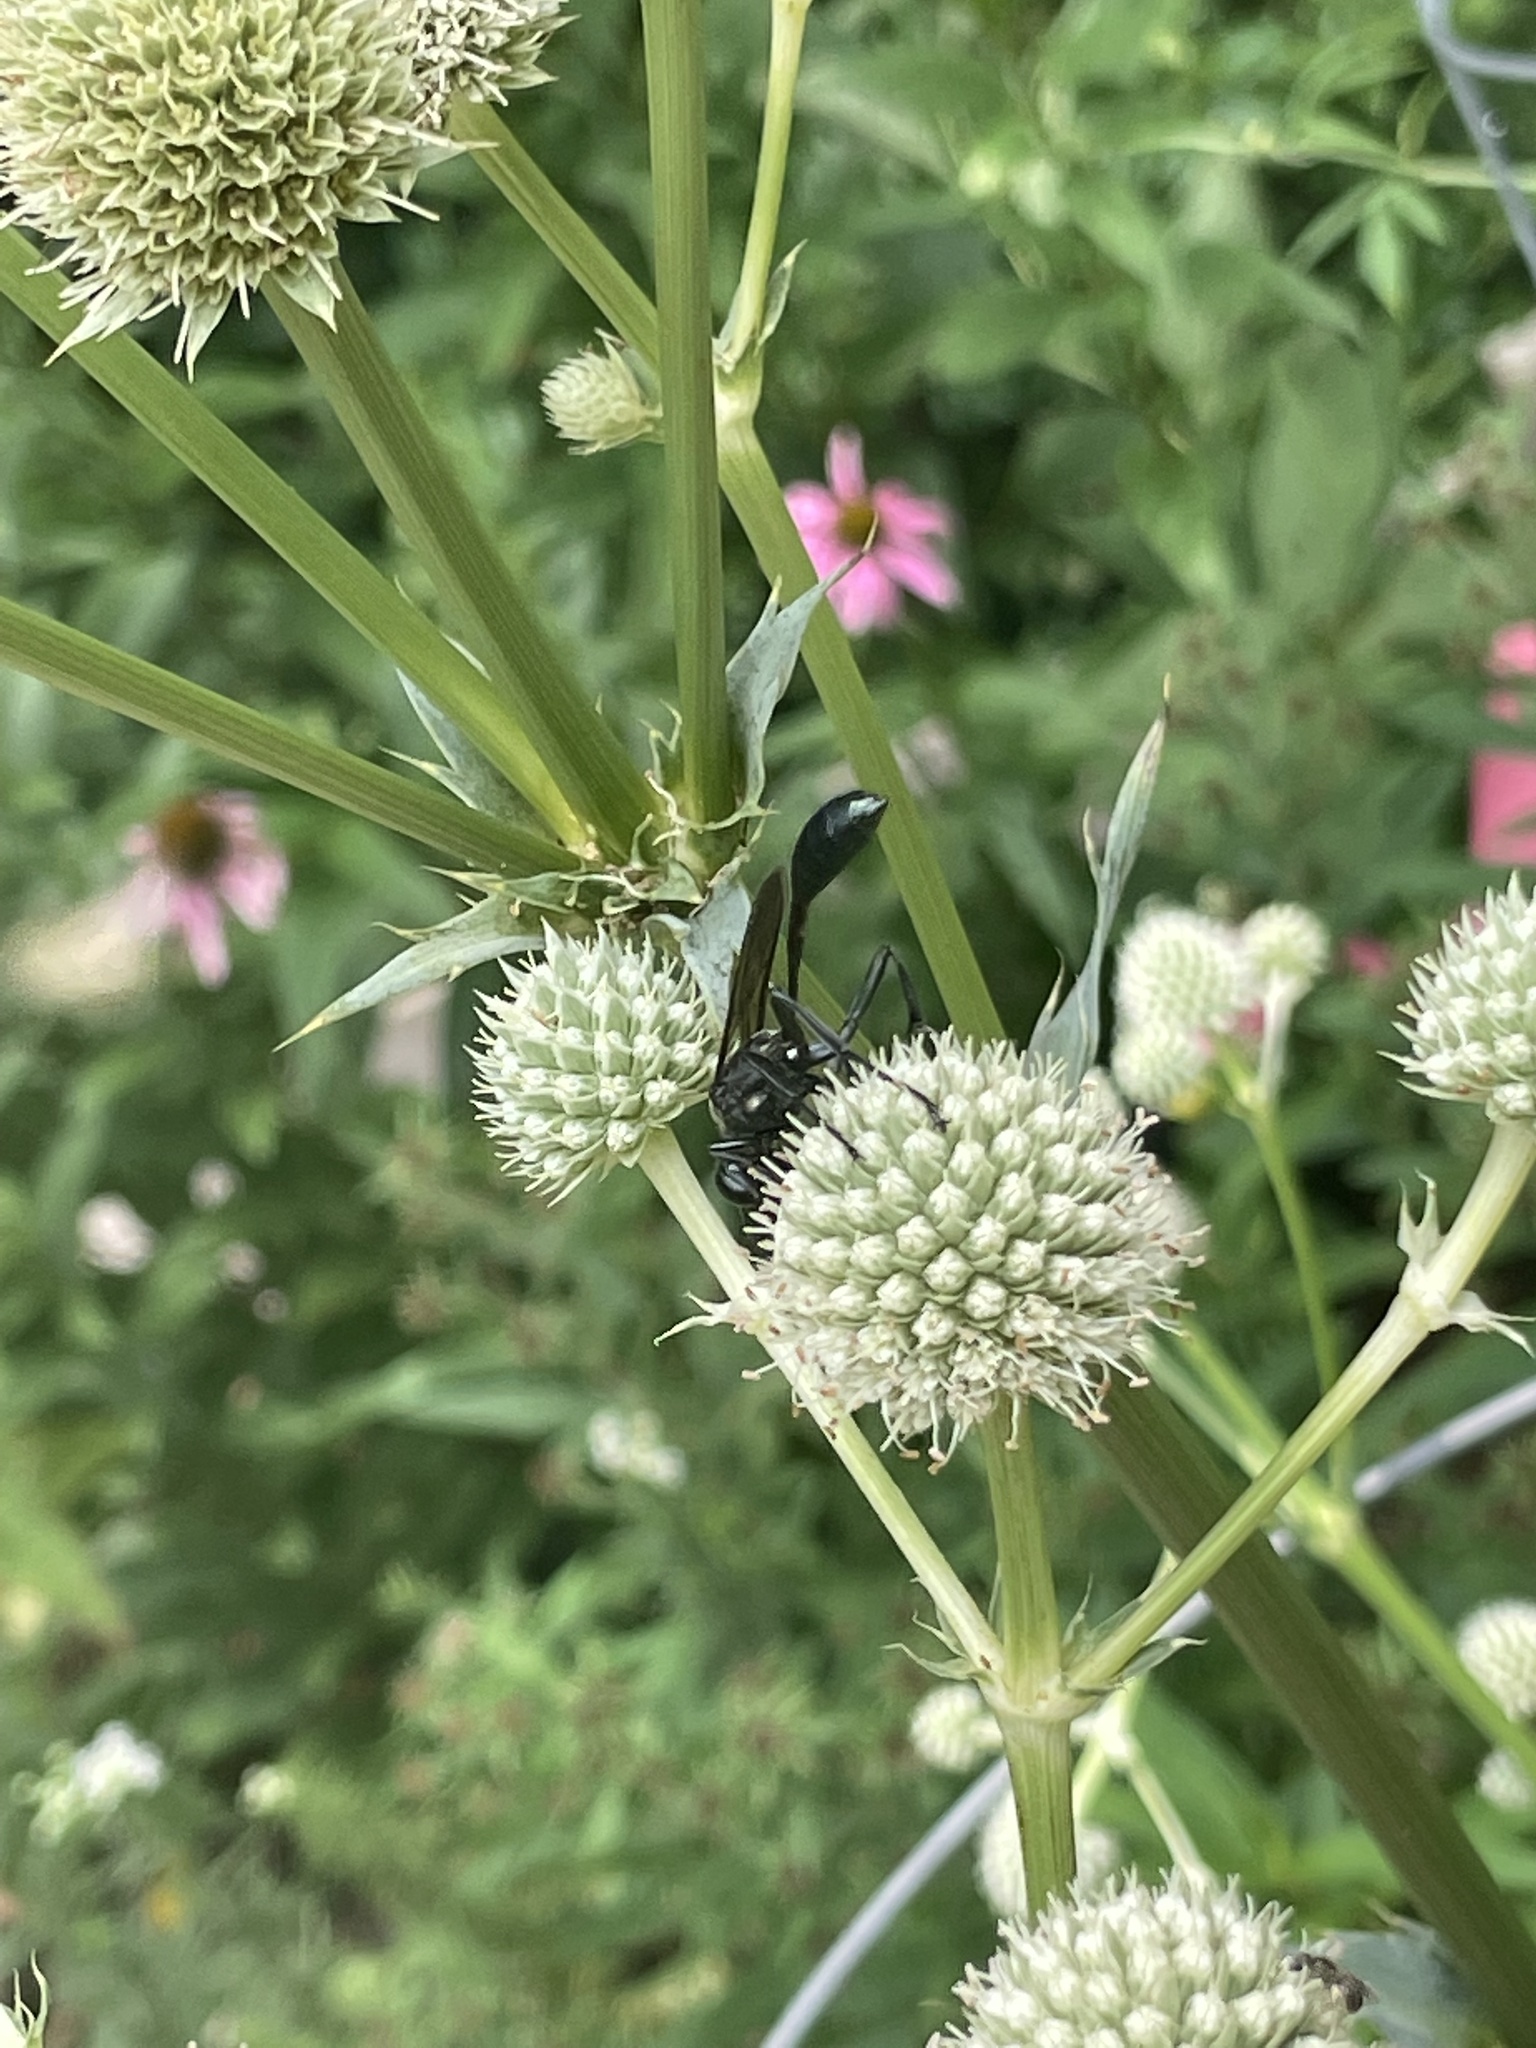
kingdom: Animalia
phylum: Arthropoda
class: Insecta
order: Hymenoptera
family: Sphecidae
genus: Eremnophila
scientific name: Eremnophila aureonotata
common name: Gold-marked thread-waisted wasp
